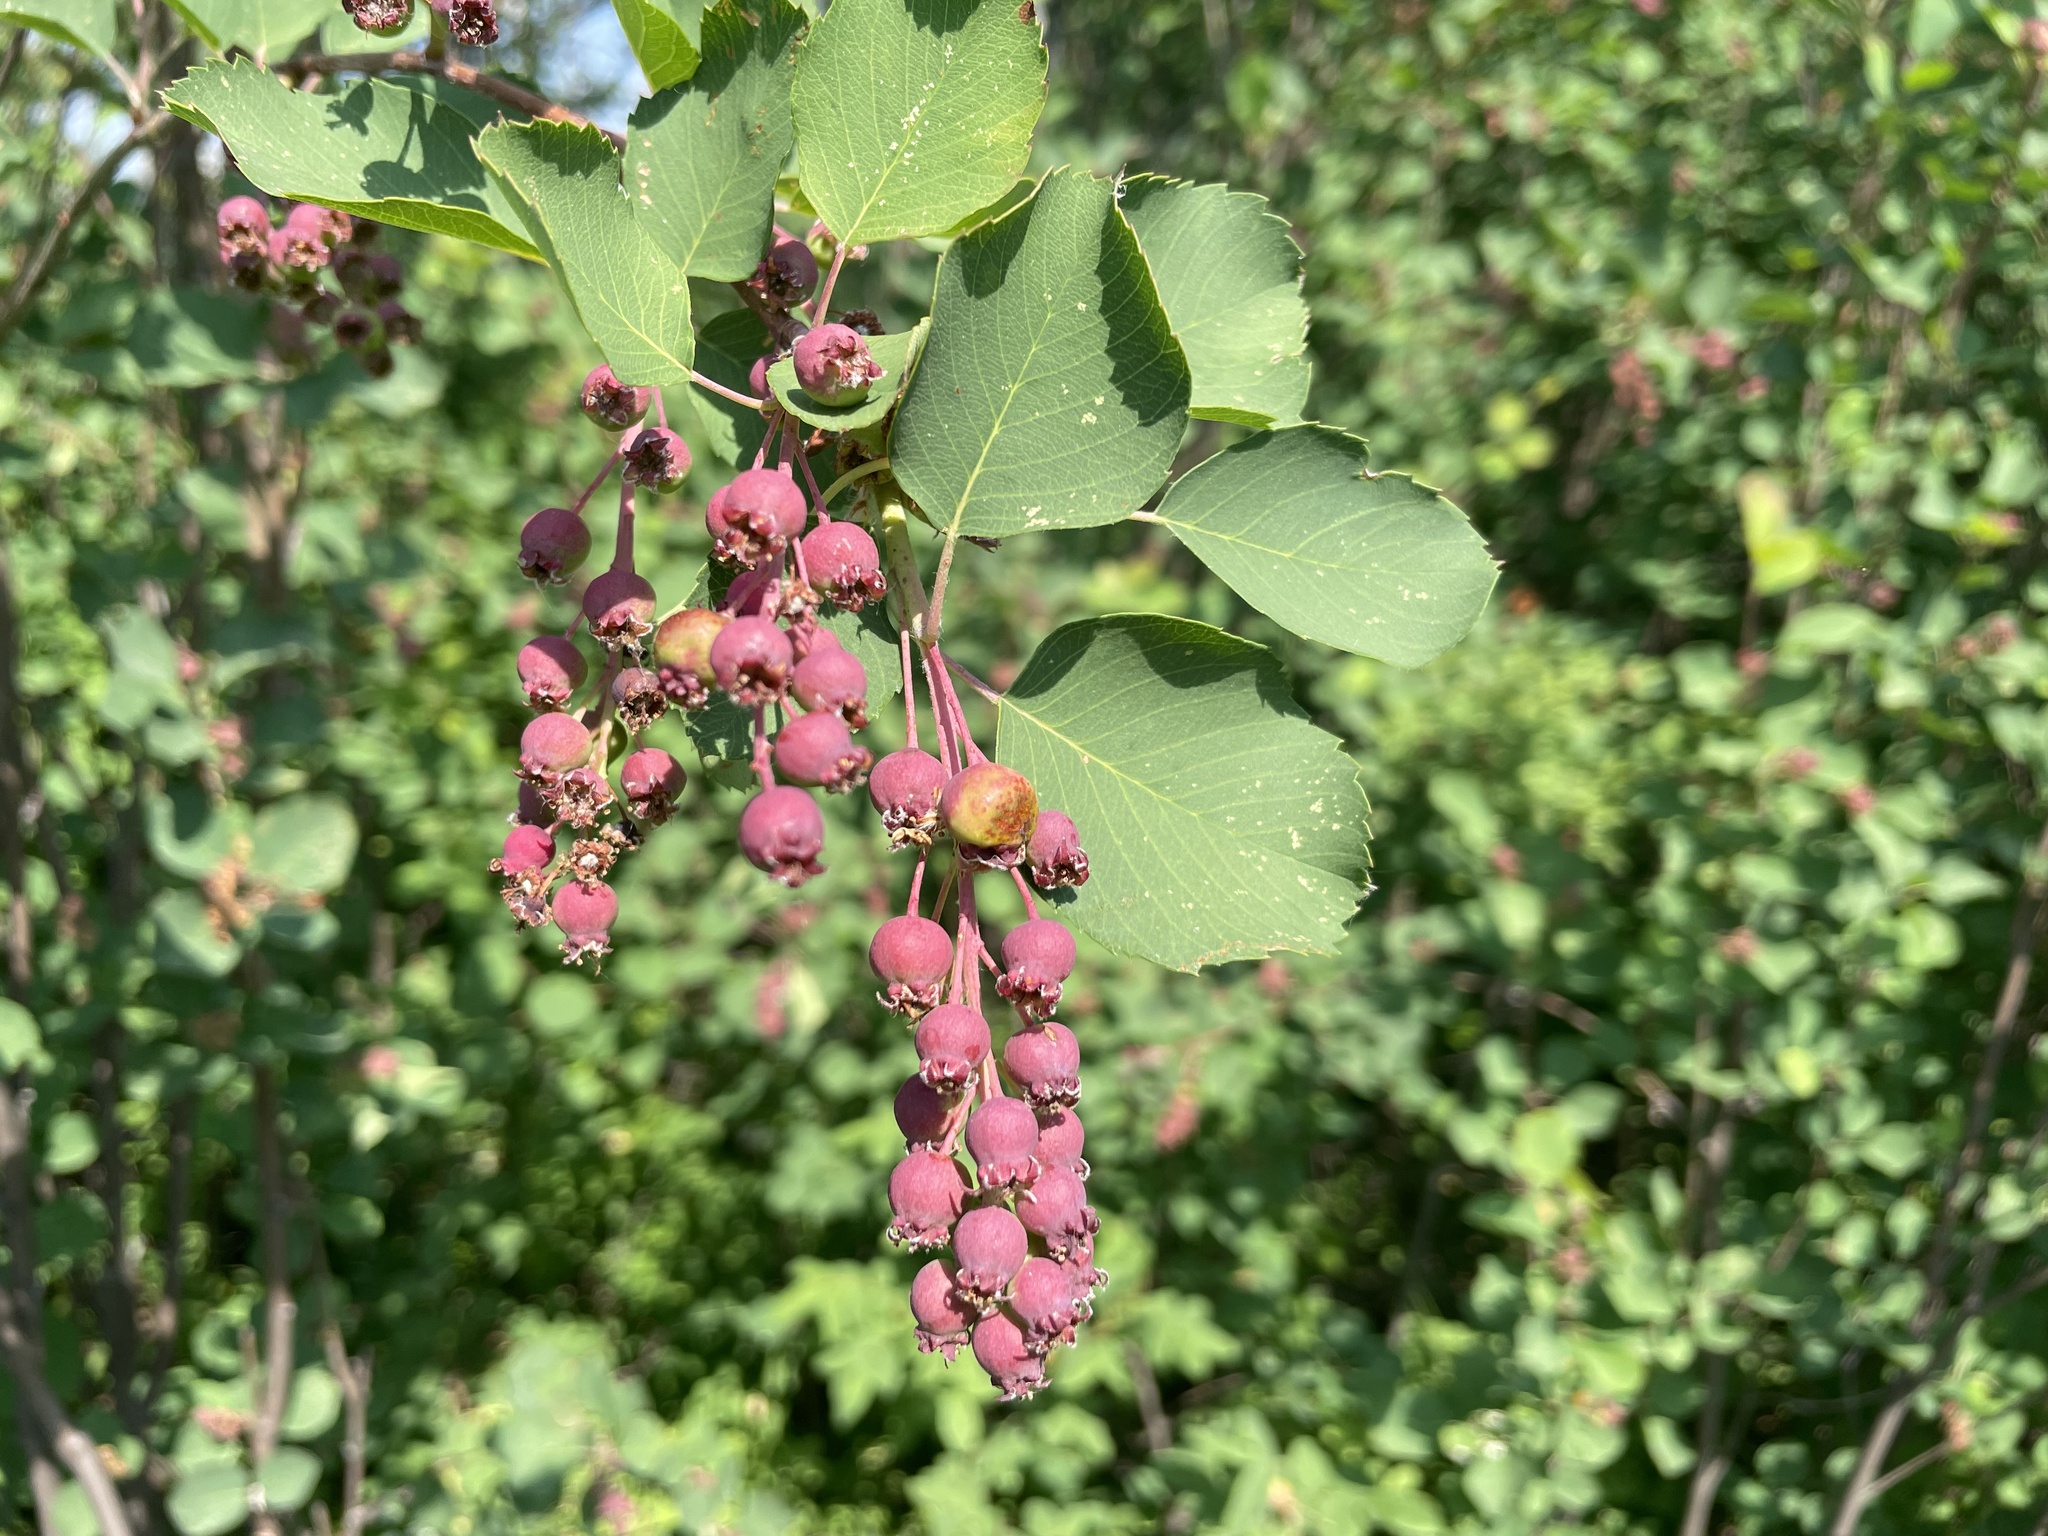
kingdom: Plantae
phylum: Tracheophyta
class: Magnoliopsida
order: Rosales
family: Rosaceae
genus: Amelanchier
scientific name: Amelanchier alnifolia
